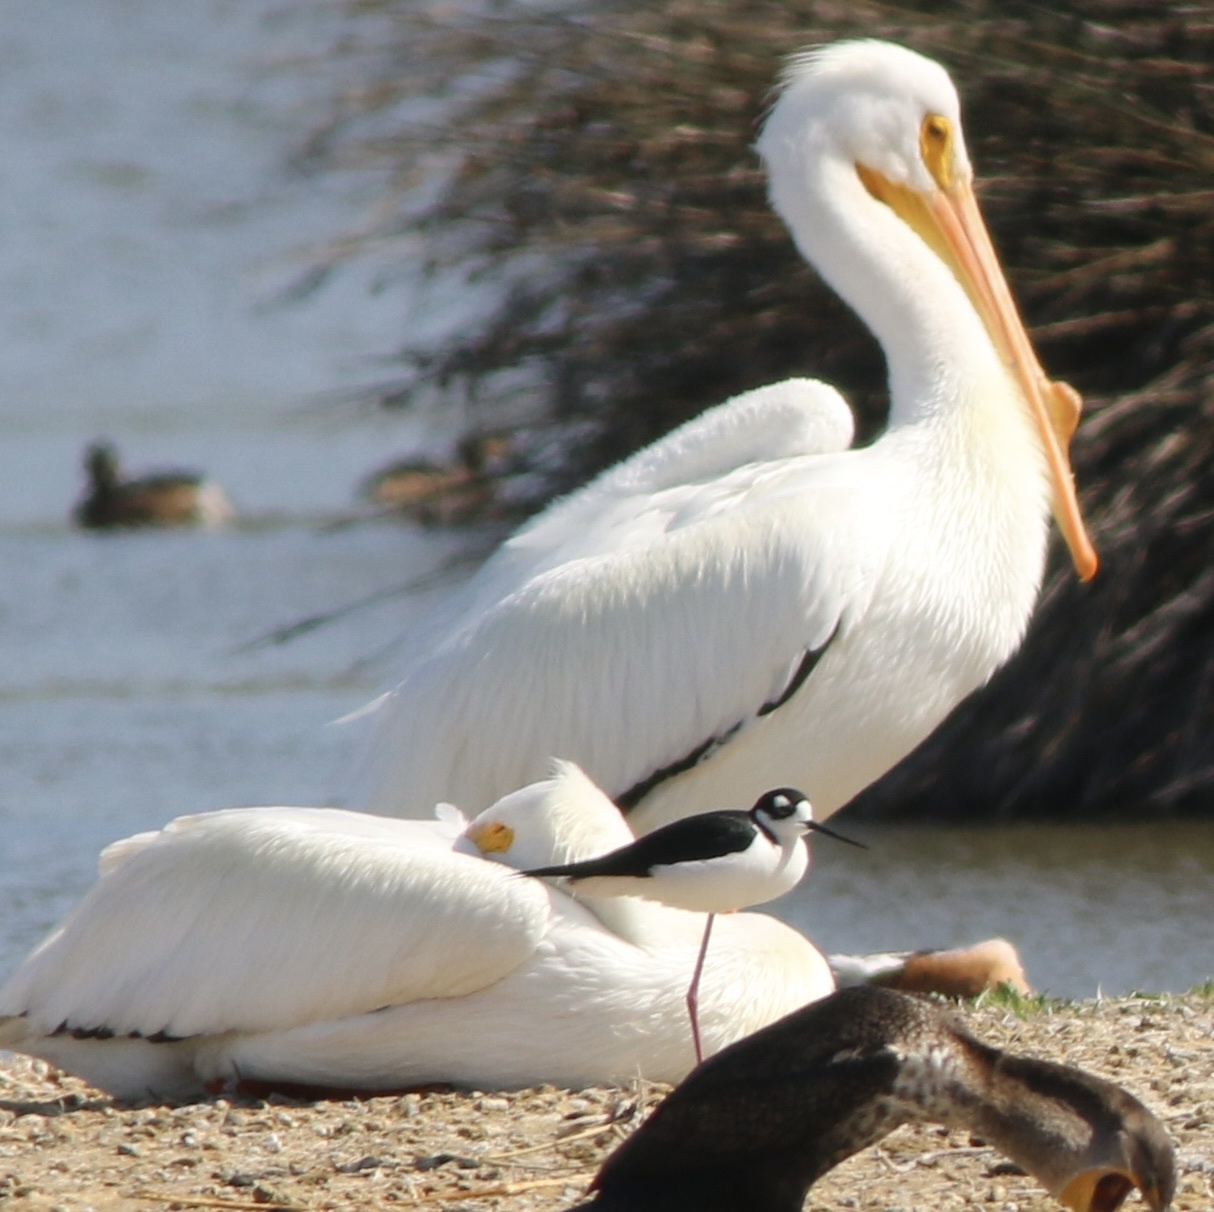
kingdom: Animalia
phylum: Chordata
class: Aves
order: Pelecaniformes
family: Pelecanidae
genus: Pelecanus
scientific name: Pelecanus erythrorhynchos
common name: American white pelican
